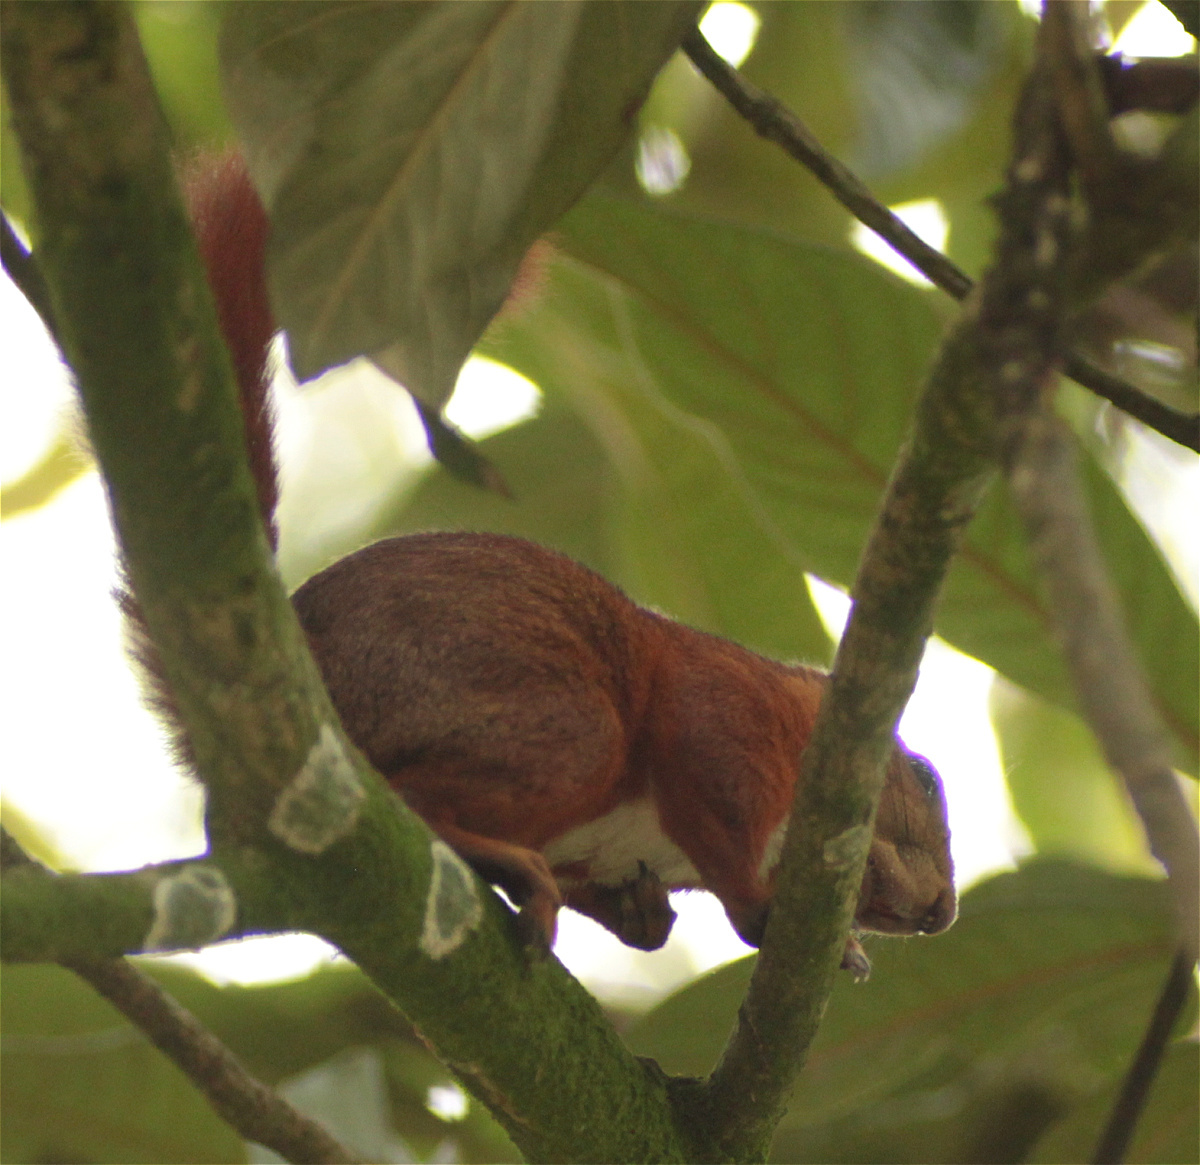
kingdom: Animalia
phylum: Chordata
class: Mammalia
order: Rodentia
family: Sciuridae
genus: Sciurus
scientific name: Sciurus granatensis
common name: Red-tailed squirrel
